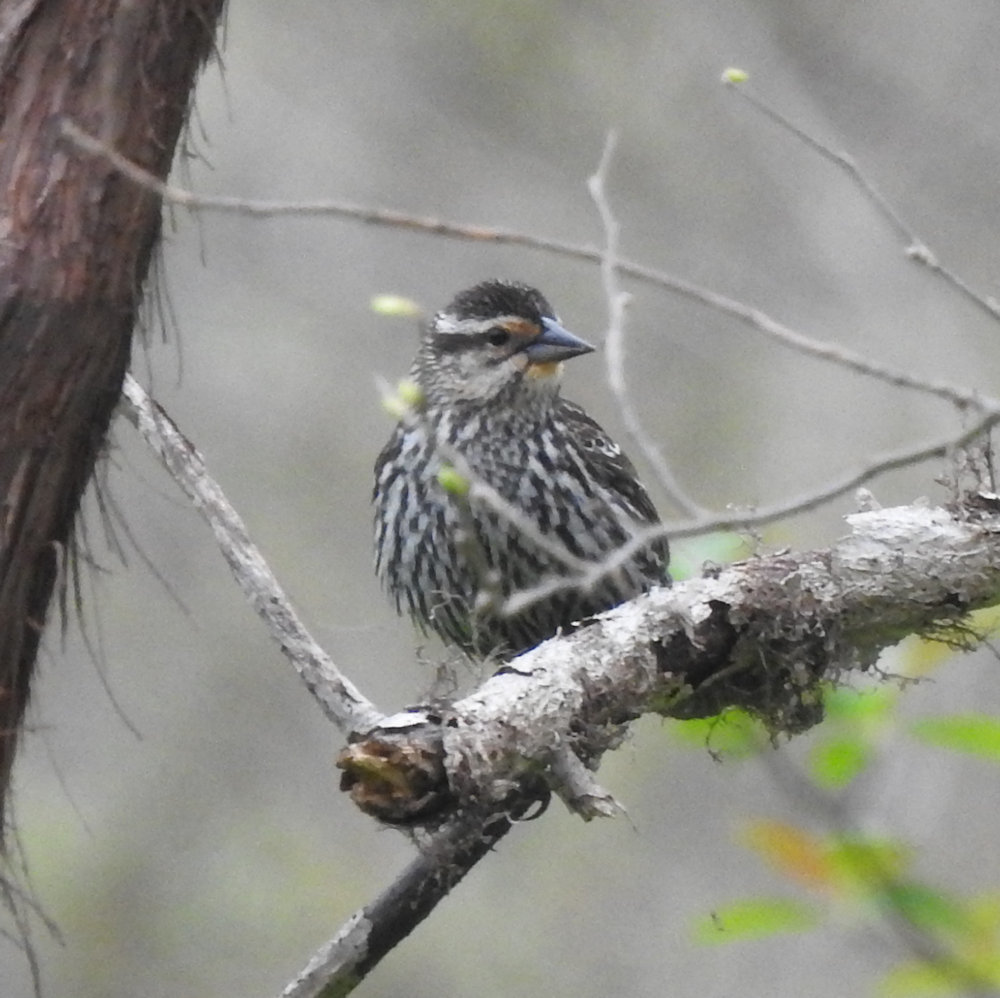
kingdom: Animalia
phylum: Chordata
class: Aves
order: Passeriformes
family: Icteridae
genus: Agelaius
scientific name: Agelaius phoeniceus
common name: Red-winged blackbird
